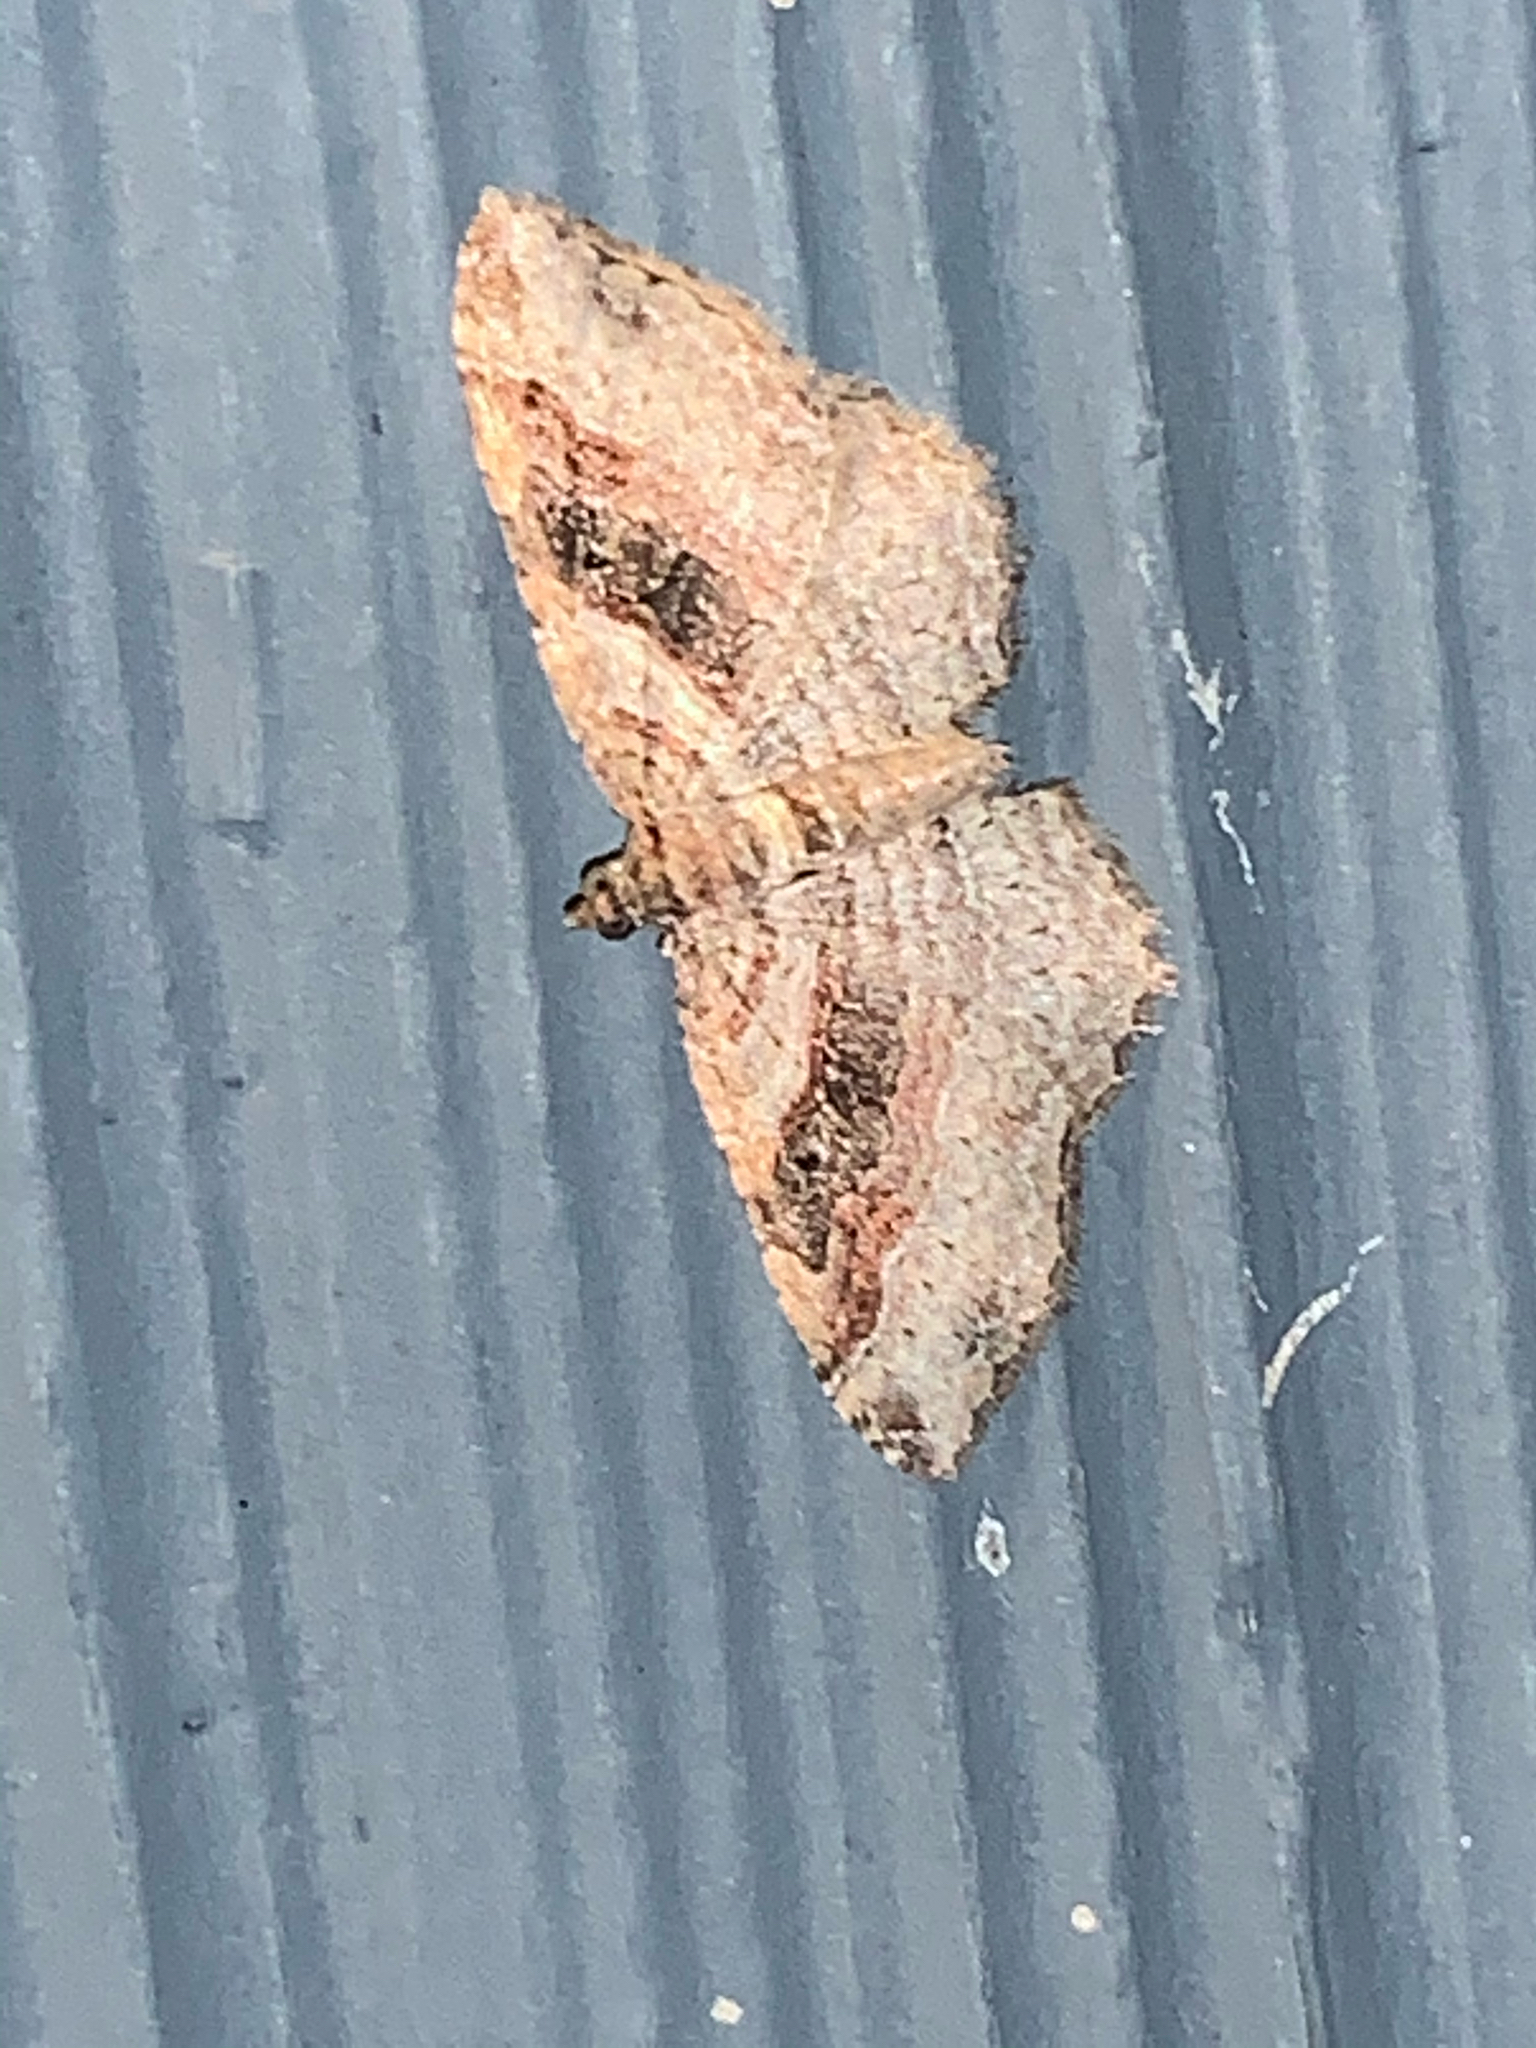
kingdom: Animalia
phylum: Arthropoda
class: Insecta
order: Lepidoptera
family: Geometridae
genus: Costaconvexa
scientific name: Costaconvexa centrostrigaria
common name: Bent-line carpet
